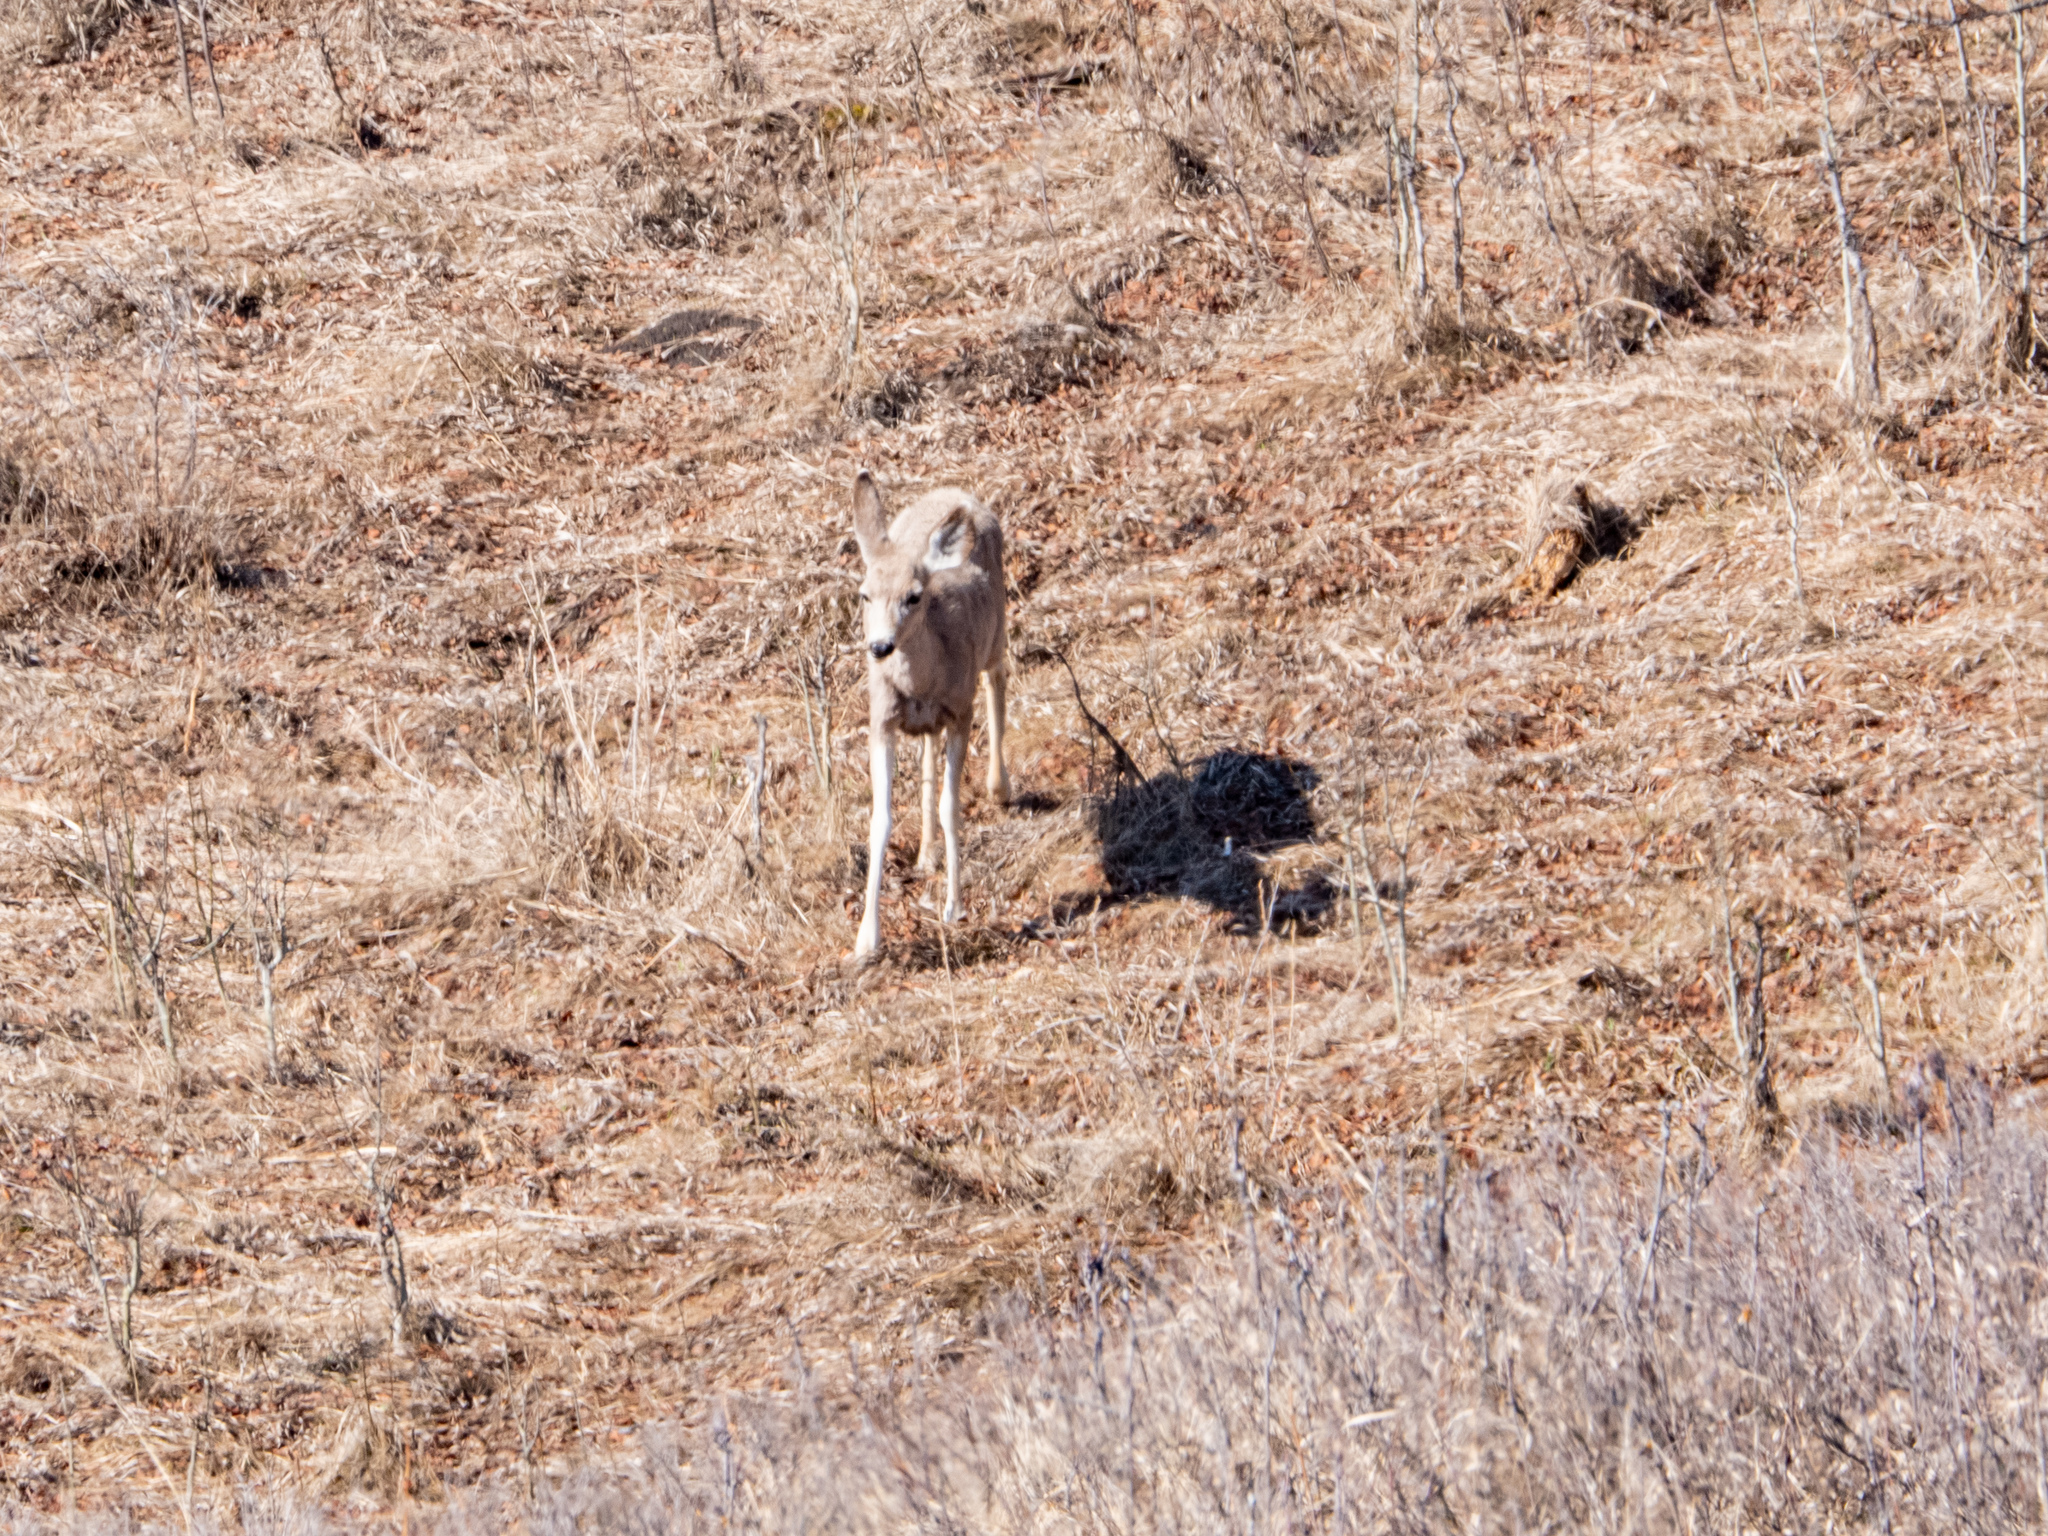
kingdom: Animalia
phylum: Chordata
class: Mammalia
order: Artiodactyla
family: Cervidae
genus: Odocoileus
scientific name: Odocoileus hemionus
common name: Mule deer
